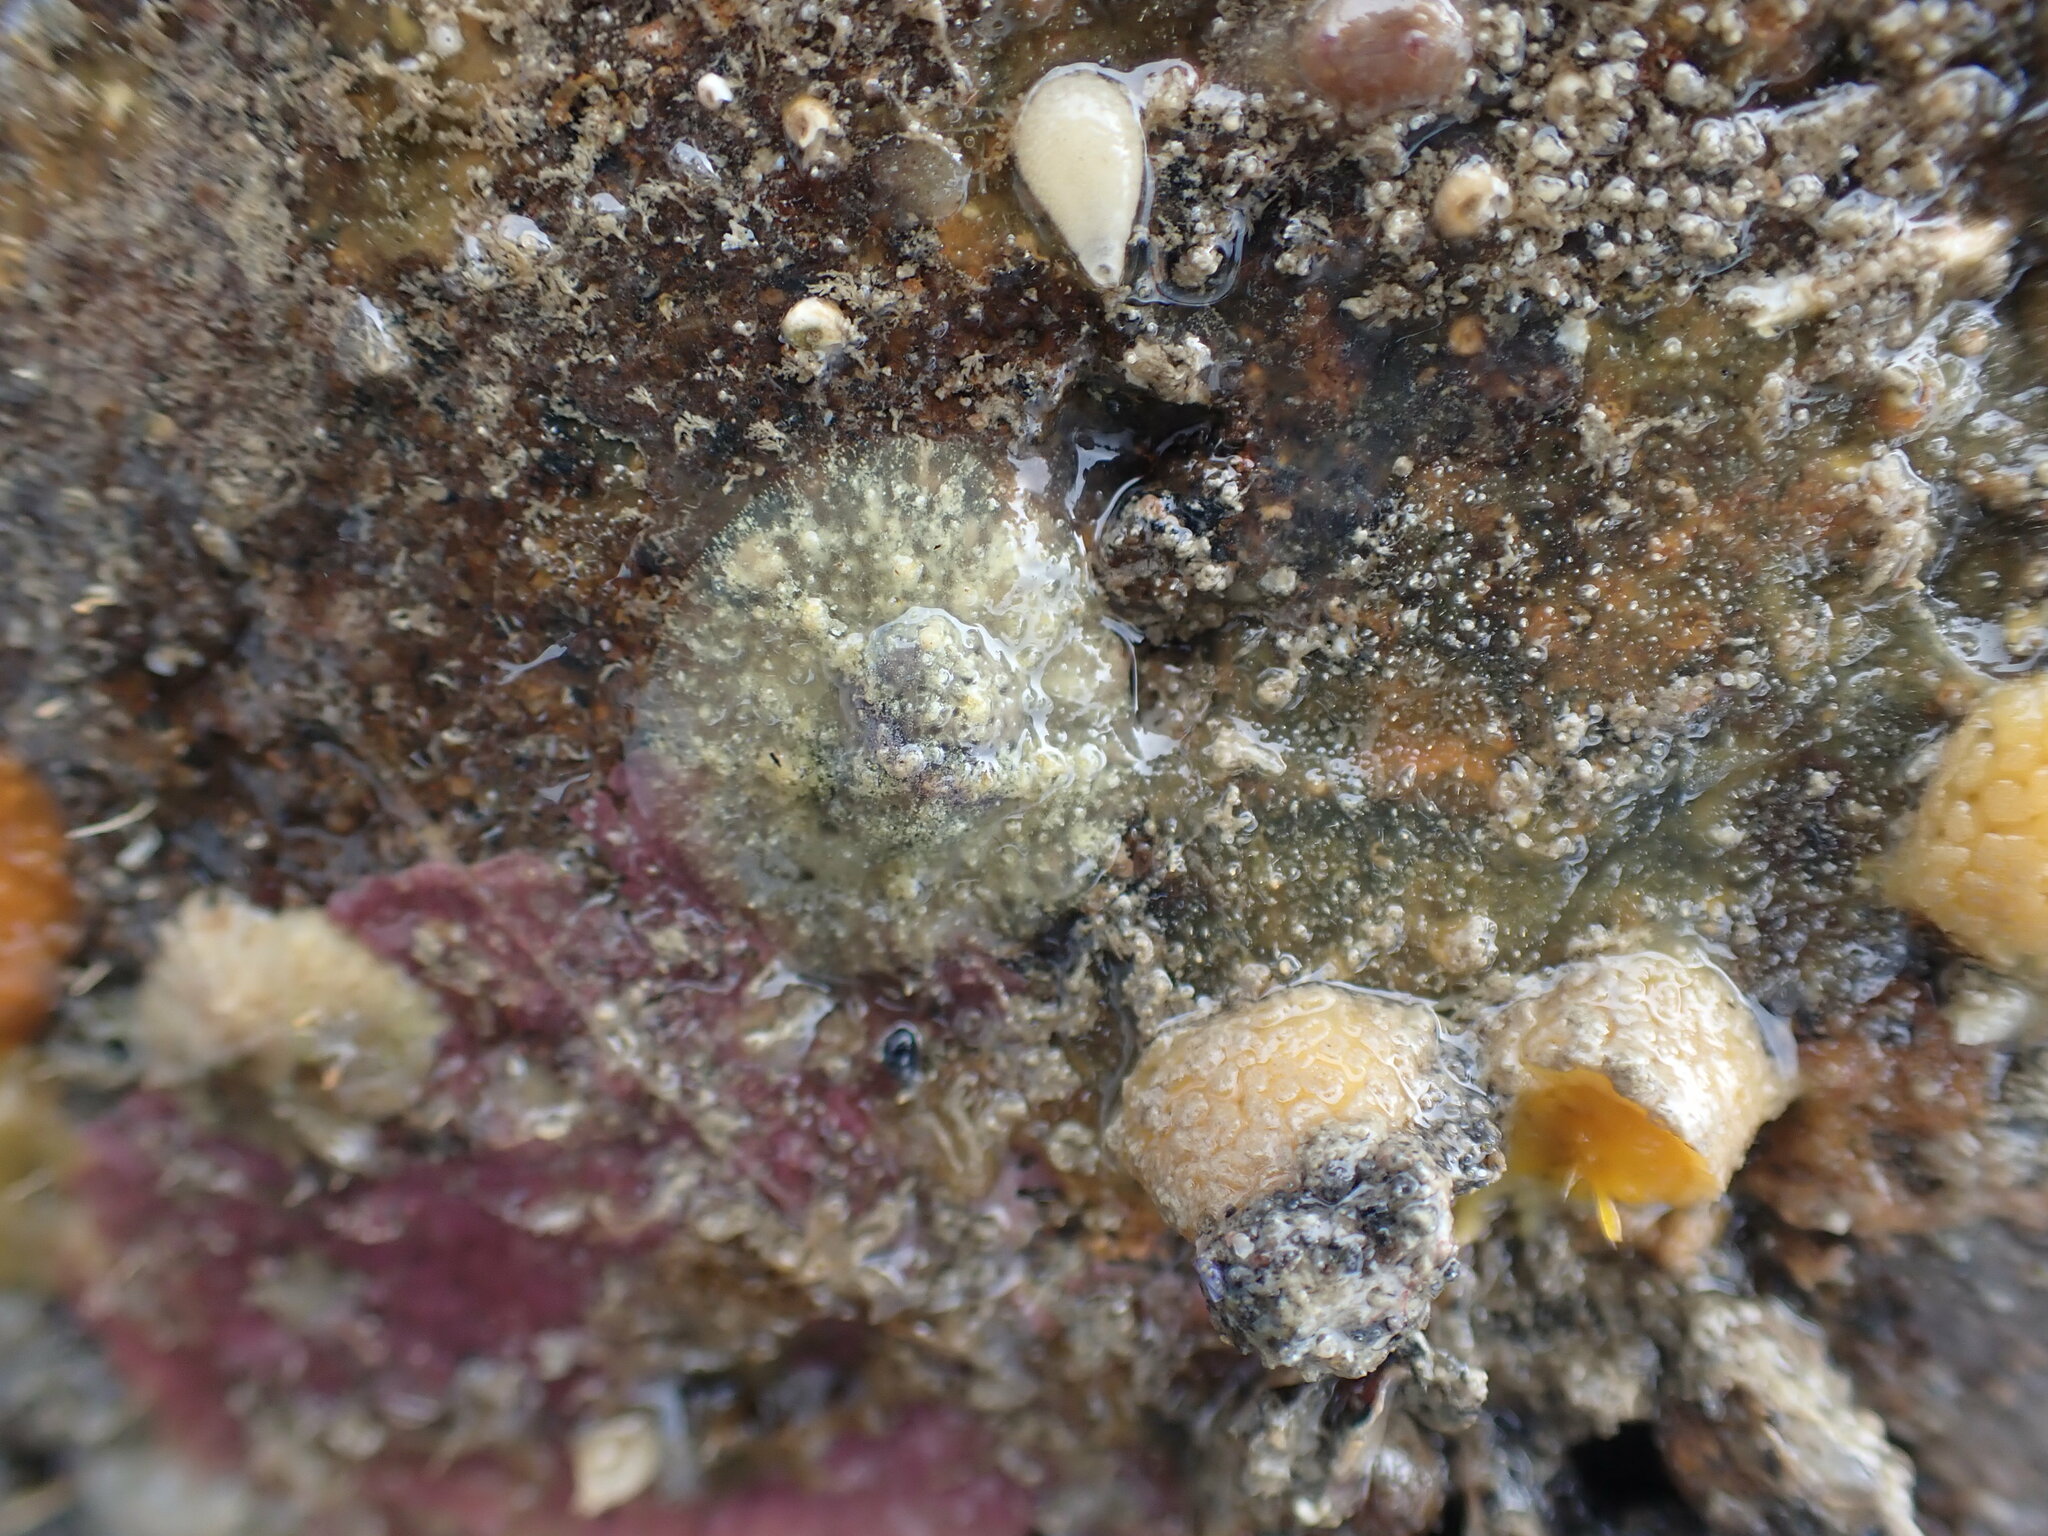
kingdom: Animalia
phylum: Mollusca
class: Gastropoda
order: Littorinimorpha
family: Velutinidae
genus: Lamellaria
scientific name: Lamellaria ophione
